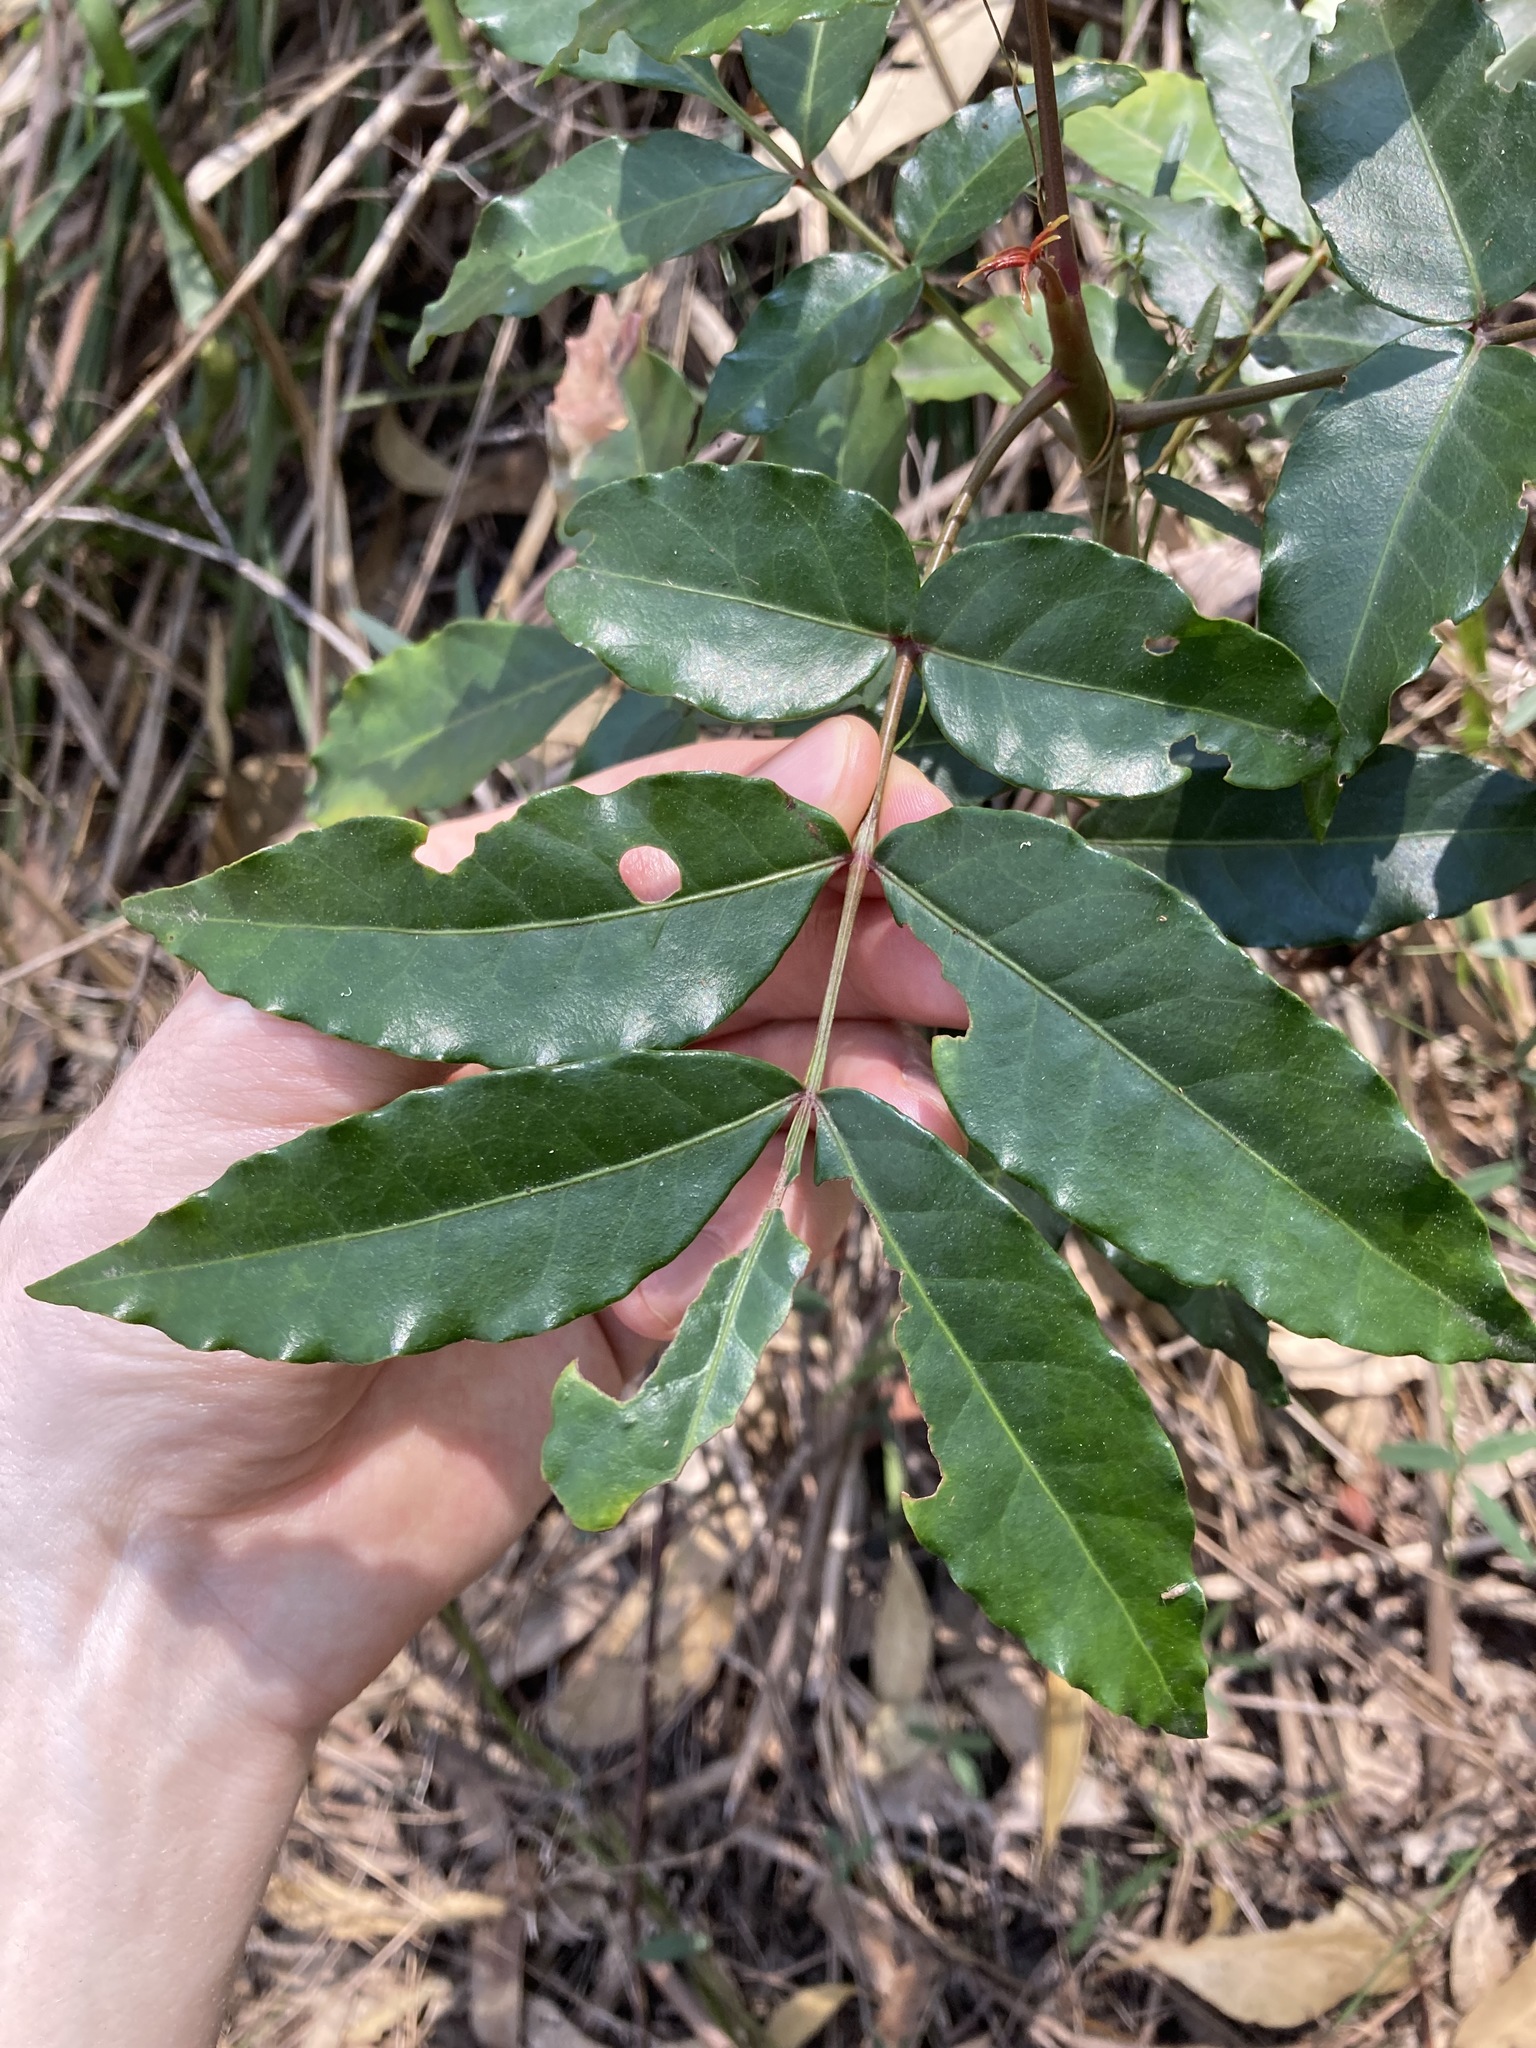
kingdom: Plantae
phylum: Tracheophyta
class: Magnoliopsida
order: Sapindales
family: Anacardiaceae
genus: Harpephyllum
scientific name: Harpephyllum caffrum
